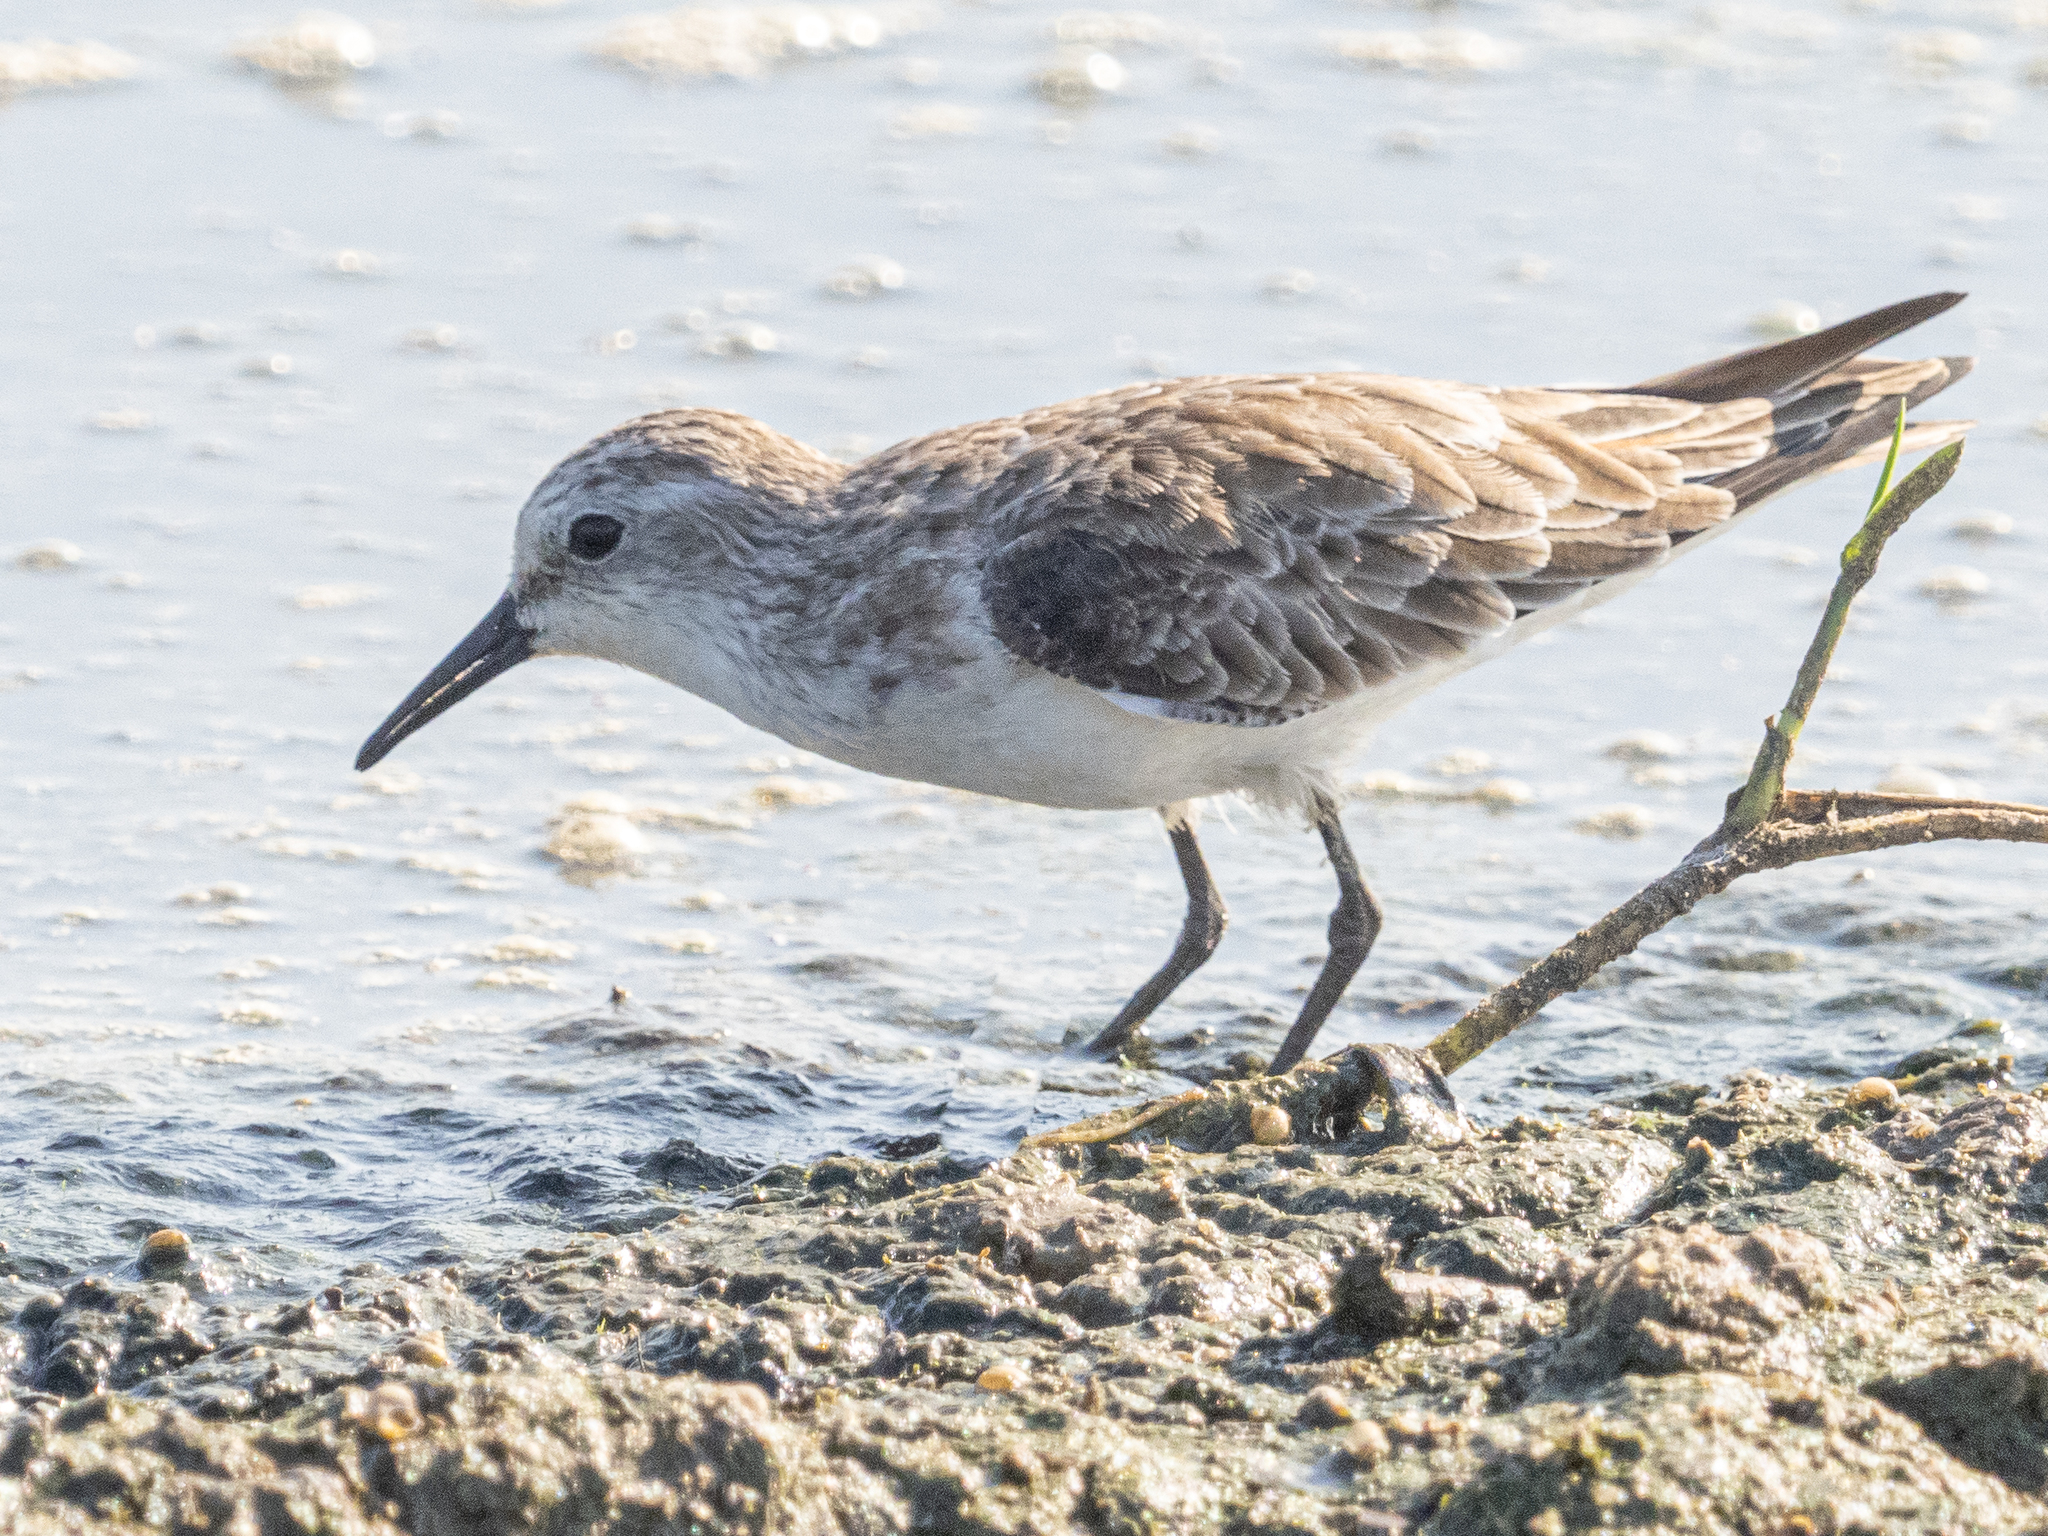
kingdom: Animalia
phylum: Chordata
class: Aves
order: Charadriiformes
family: Scolopacidae
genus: Calidris
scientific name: Calidris minuta
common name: Little stint
